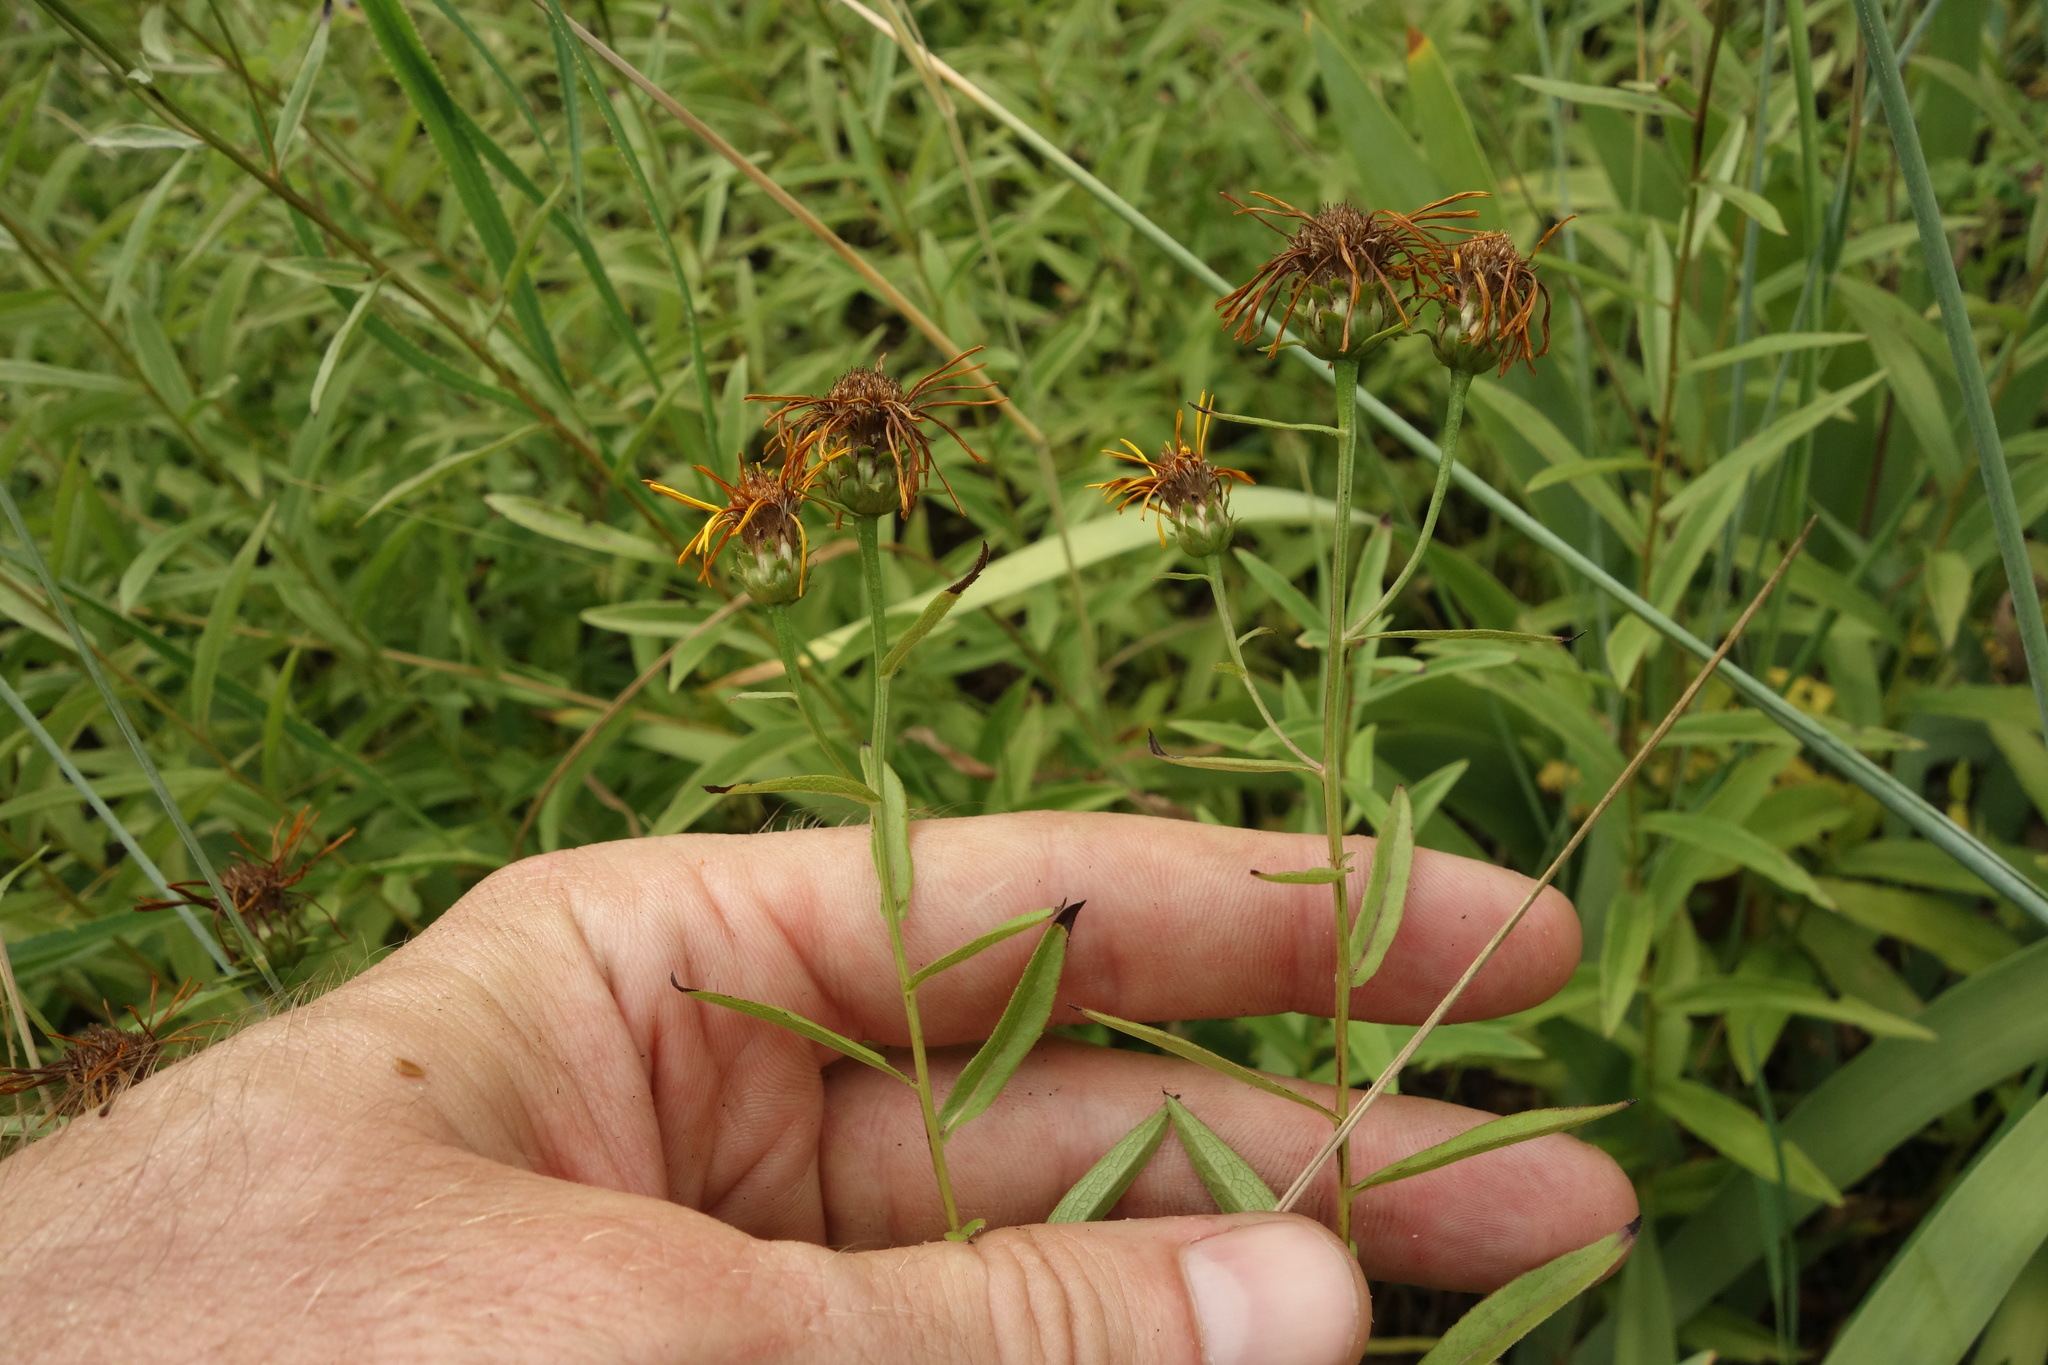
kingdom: Plantae
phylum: Tracheophyta
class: Magnoliopsida
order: Asterales
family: Asteraceae
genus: Pentanema
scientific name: Pentanema salicinum
